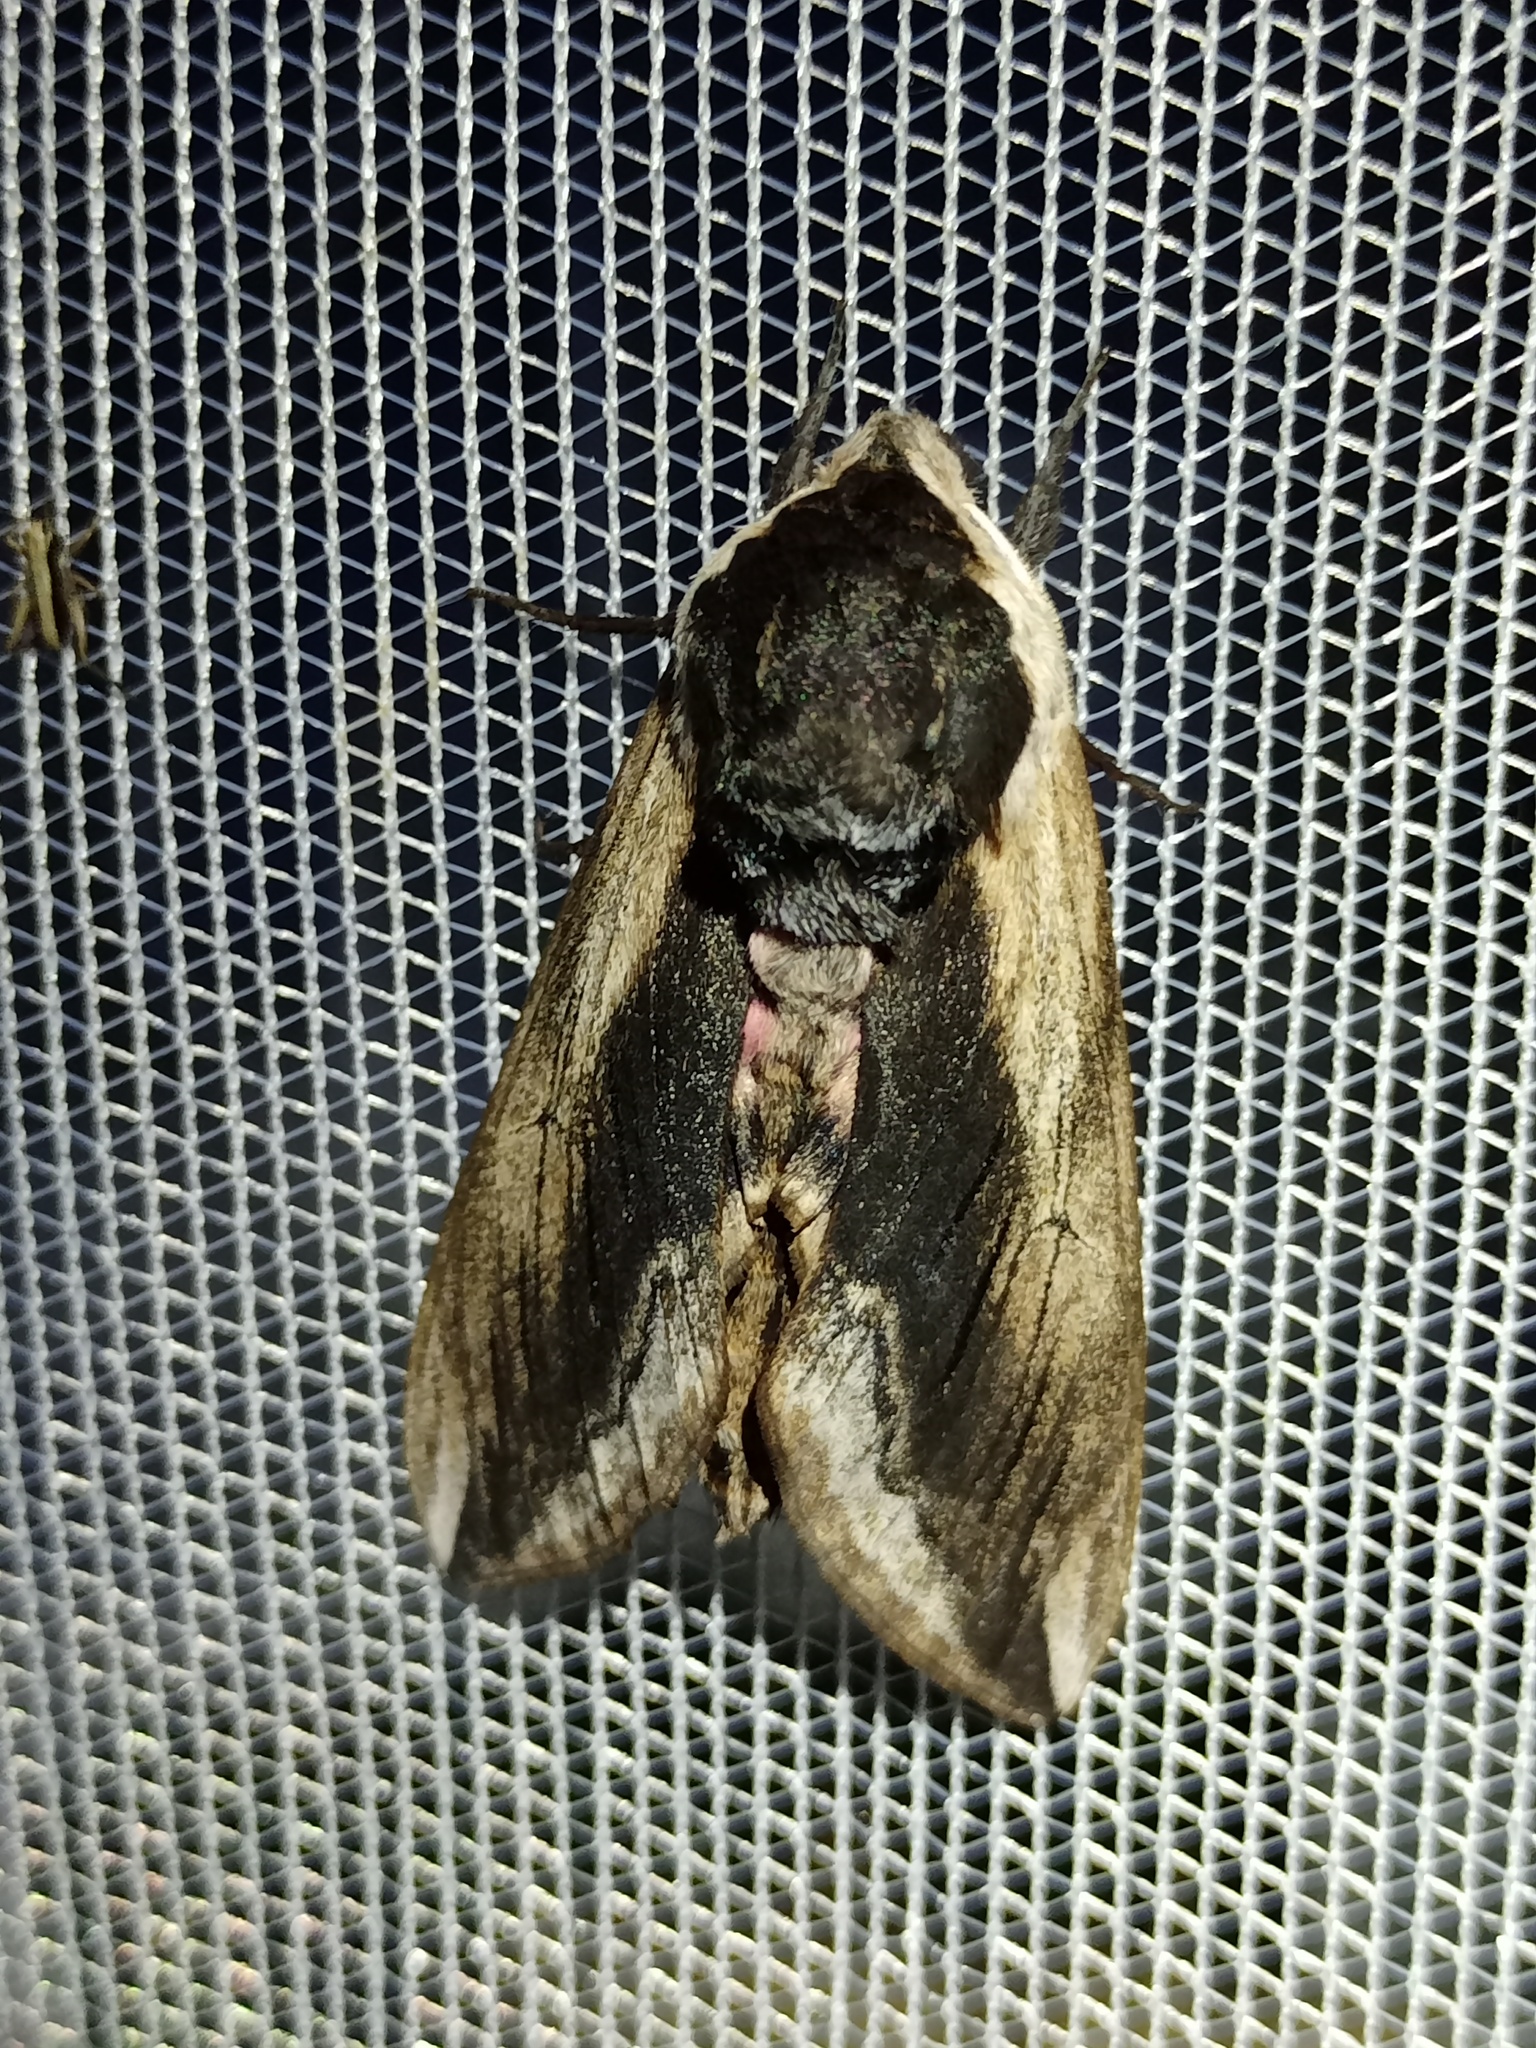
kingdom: Animalia
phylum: Arthropoda
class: Insecta
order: Lepidoptera
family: Sphingidae
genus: Sphinx
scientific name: Sphinx ligustri
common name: Privet hawk-moth
